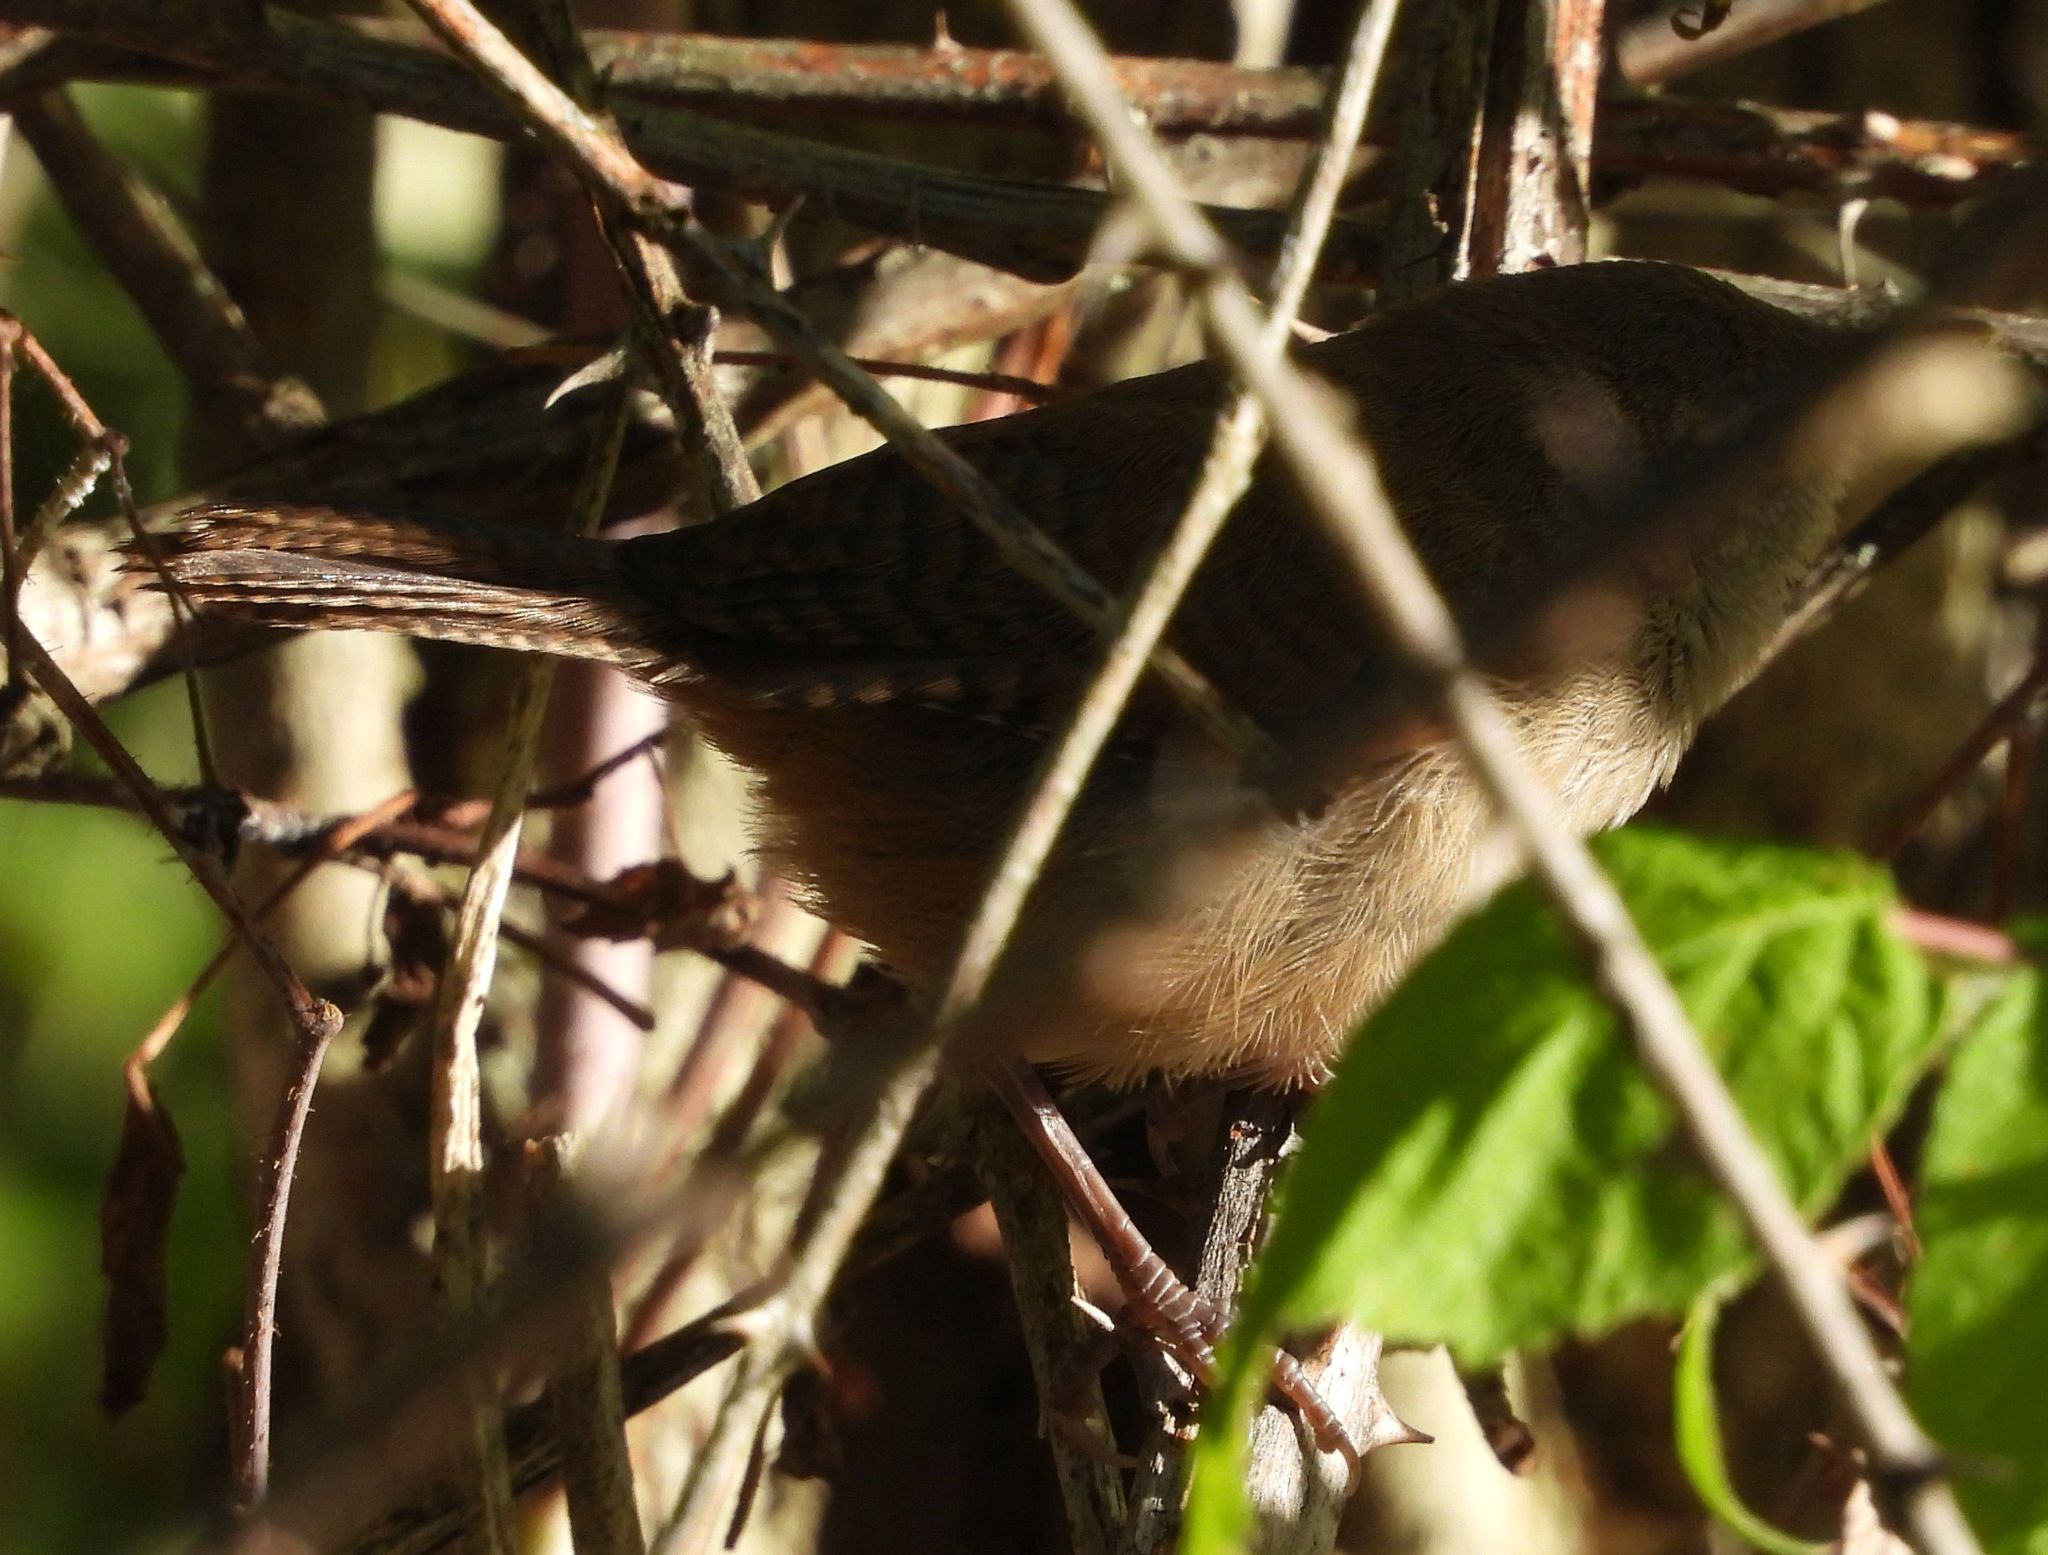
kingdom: Animalia
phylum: Chordata
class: Aves
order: Passeriformes
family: Troglodytidae
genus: Troglodytes
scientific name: Troglodytes aedon
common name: House wren
